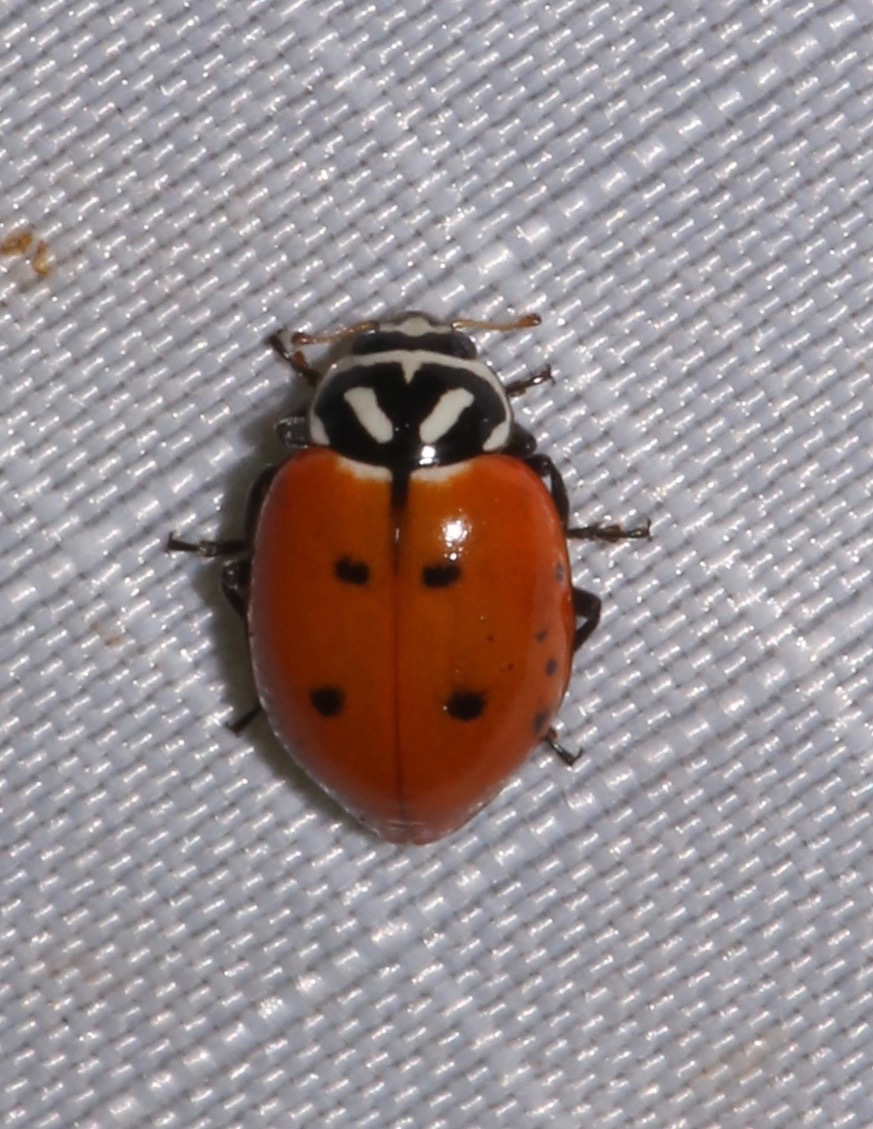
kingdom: Animalia
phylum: Arthropoda
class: Insecta
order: Coleoptera
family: Coccinellidae
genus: Hippodamia
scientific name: Hippodamia convergens
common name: Convergent lady beetle
